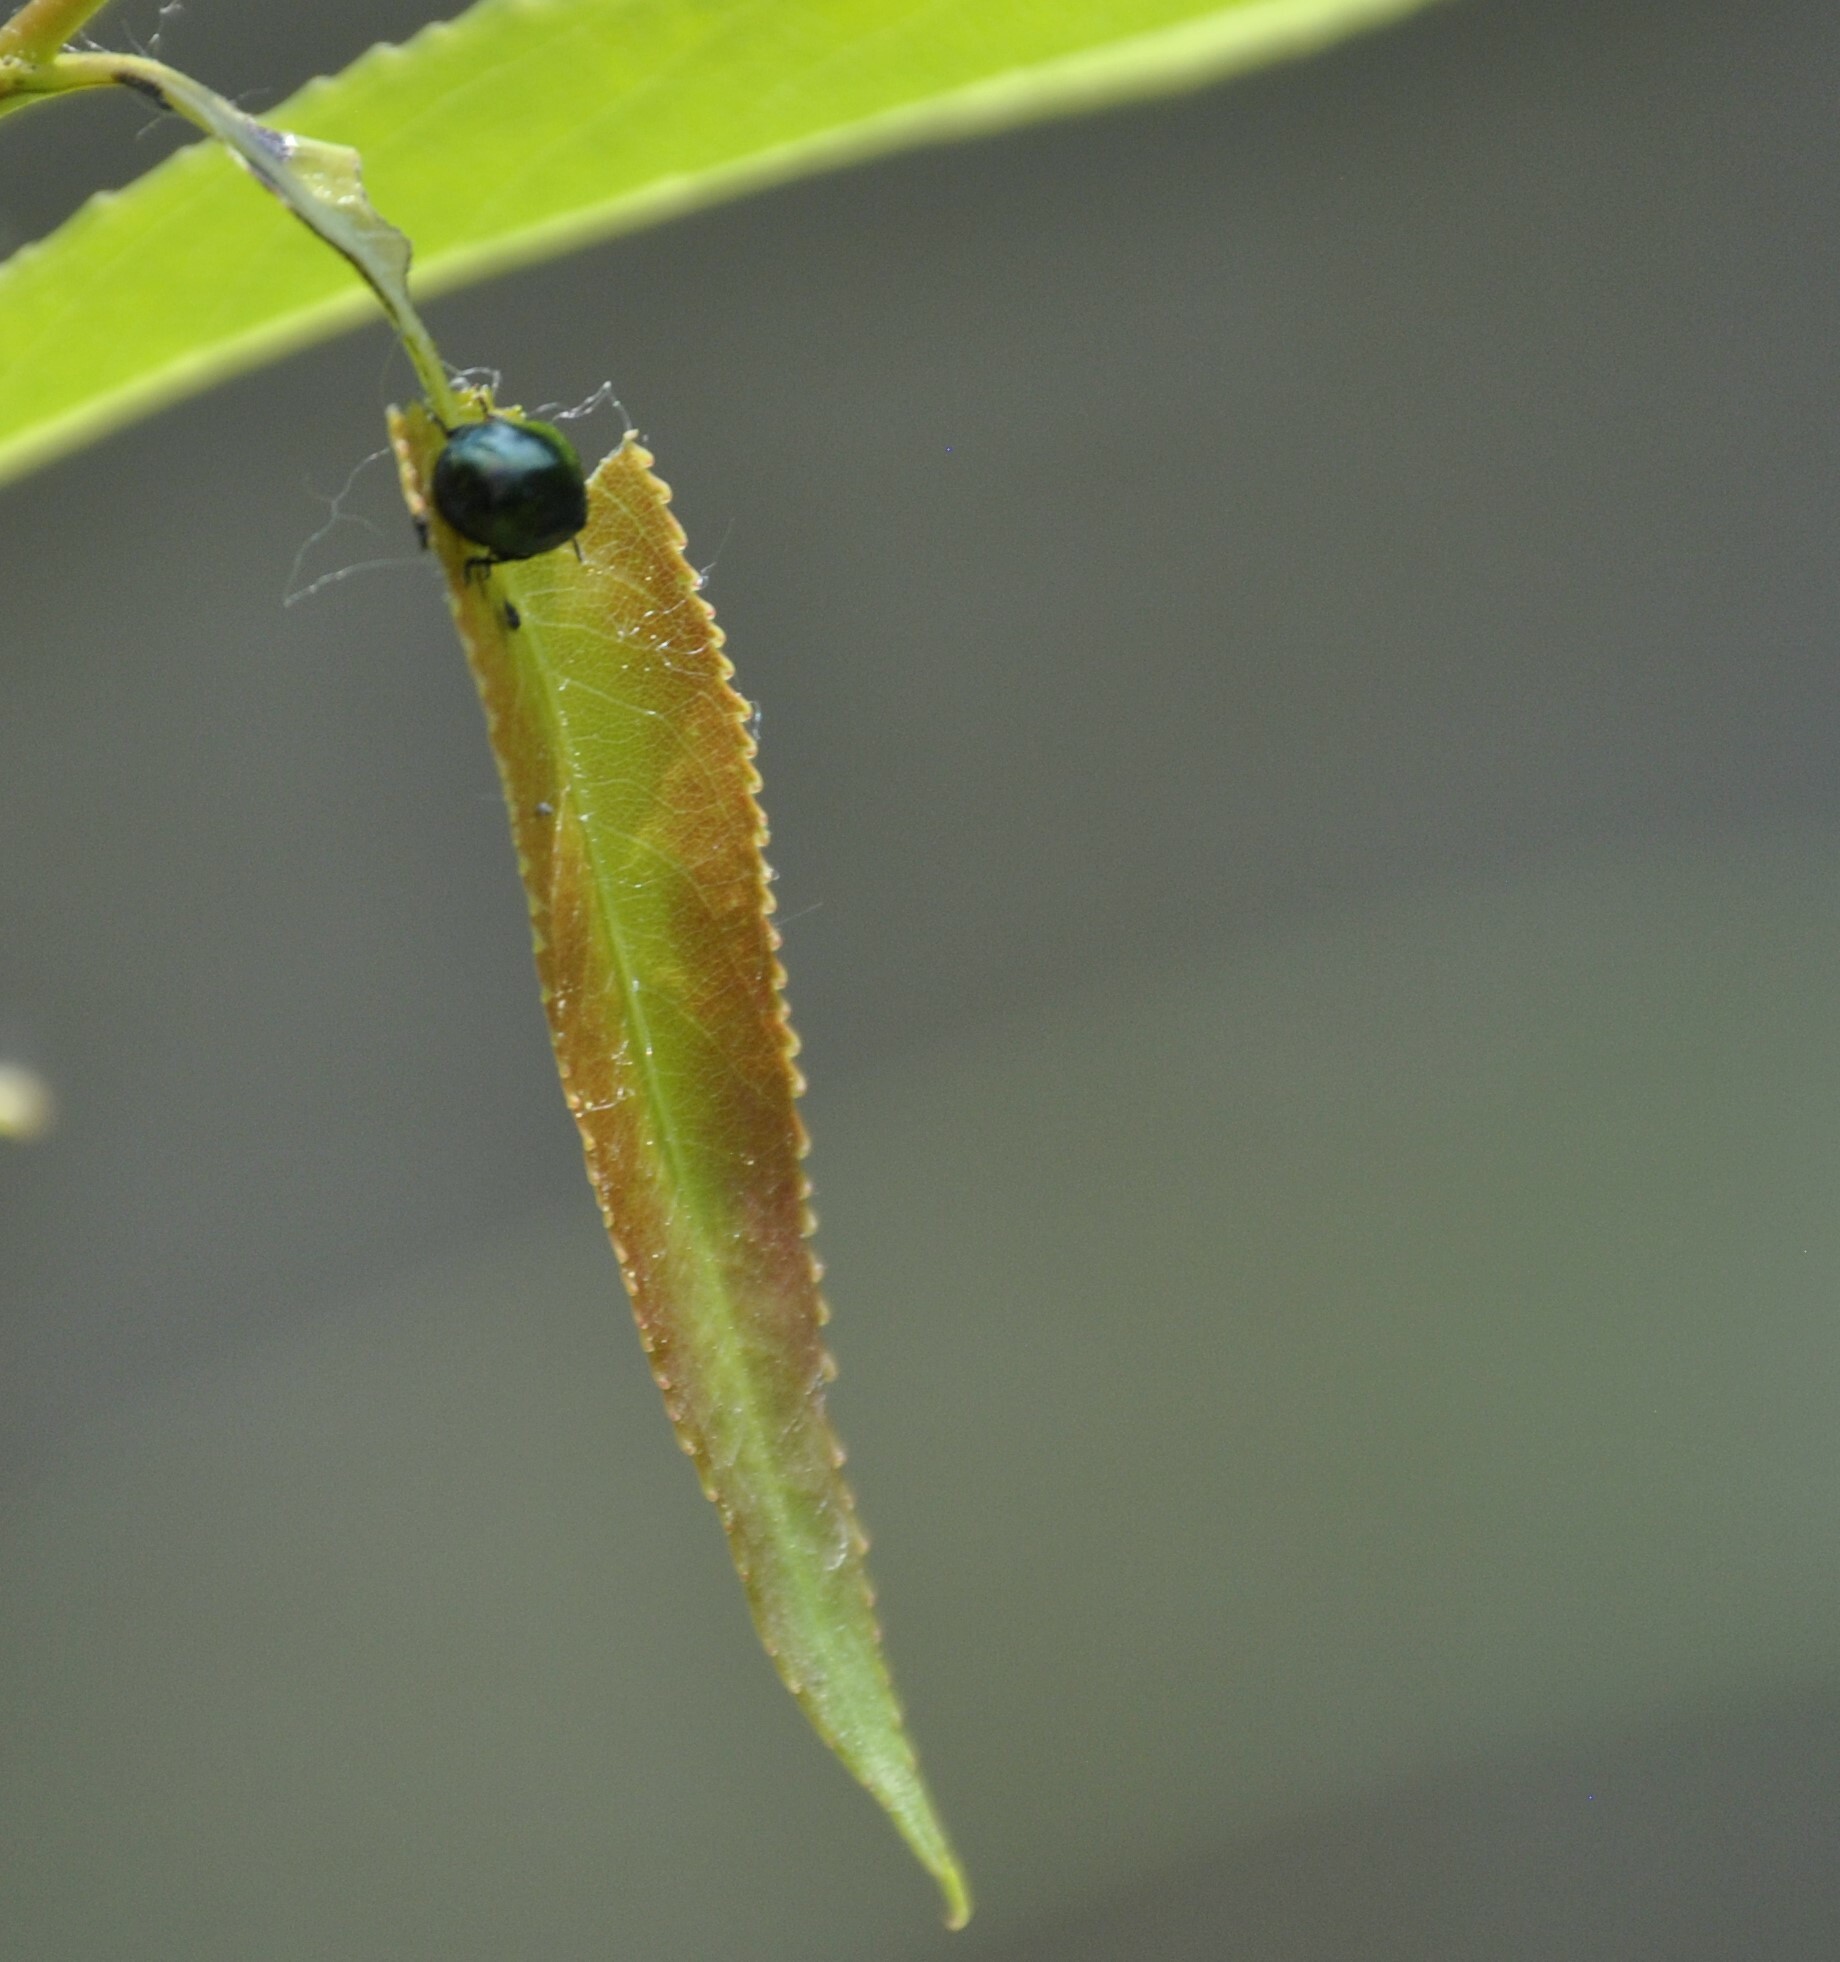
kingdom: Animalia
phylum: Arthropoda
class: Insecta
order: Coleoptera
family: Chrysomelidae
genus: Plagiodera
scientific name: Plagiodera versicolora
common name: Imported willow leaf beetle
